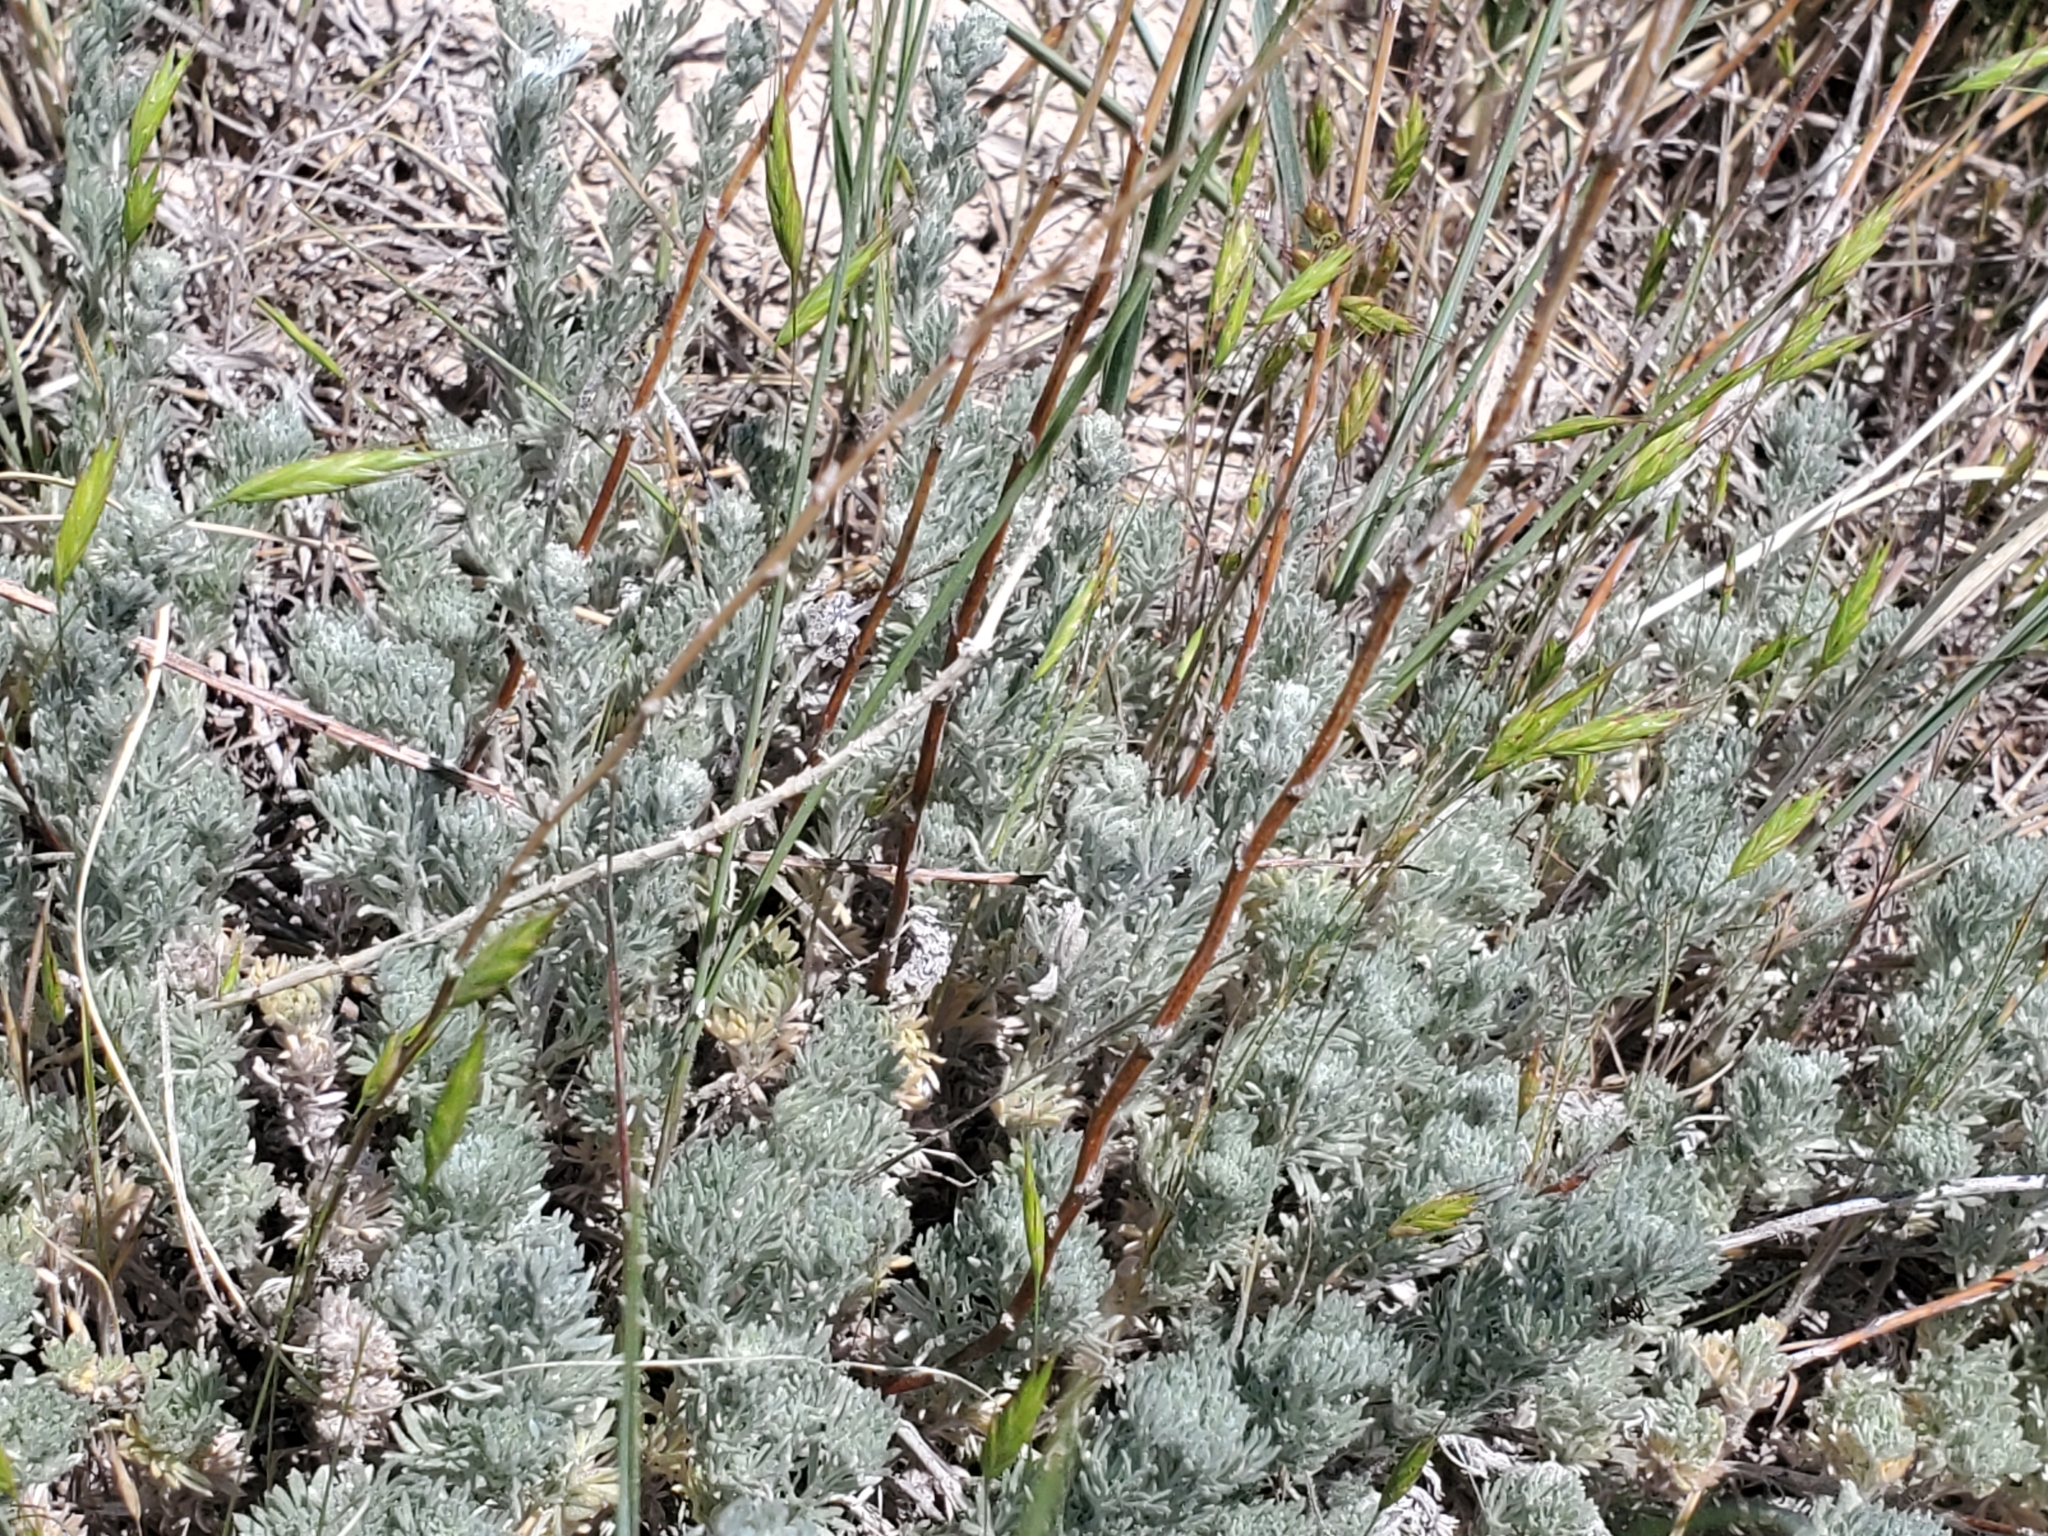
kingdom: Plantae
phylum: Tracheophyta
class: Magnoliopsida
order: Asterales
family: Asteraceae
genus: Artemisia
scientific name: Artemisia frigida
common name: Prairie sagewort
